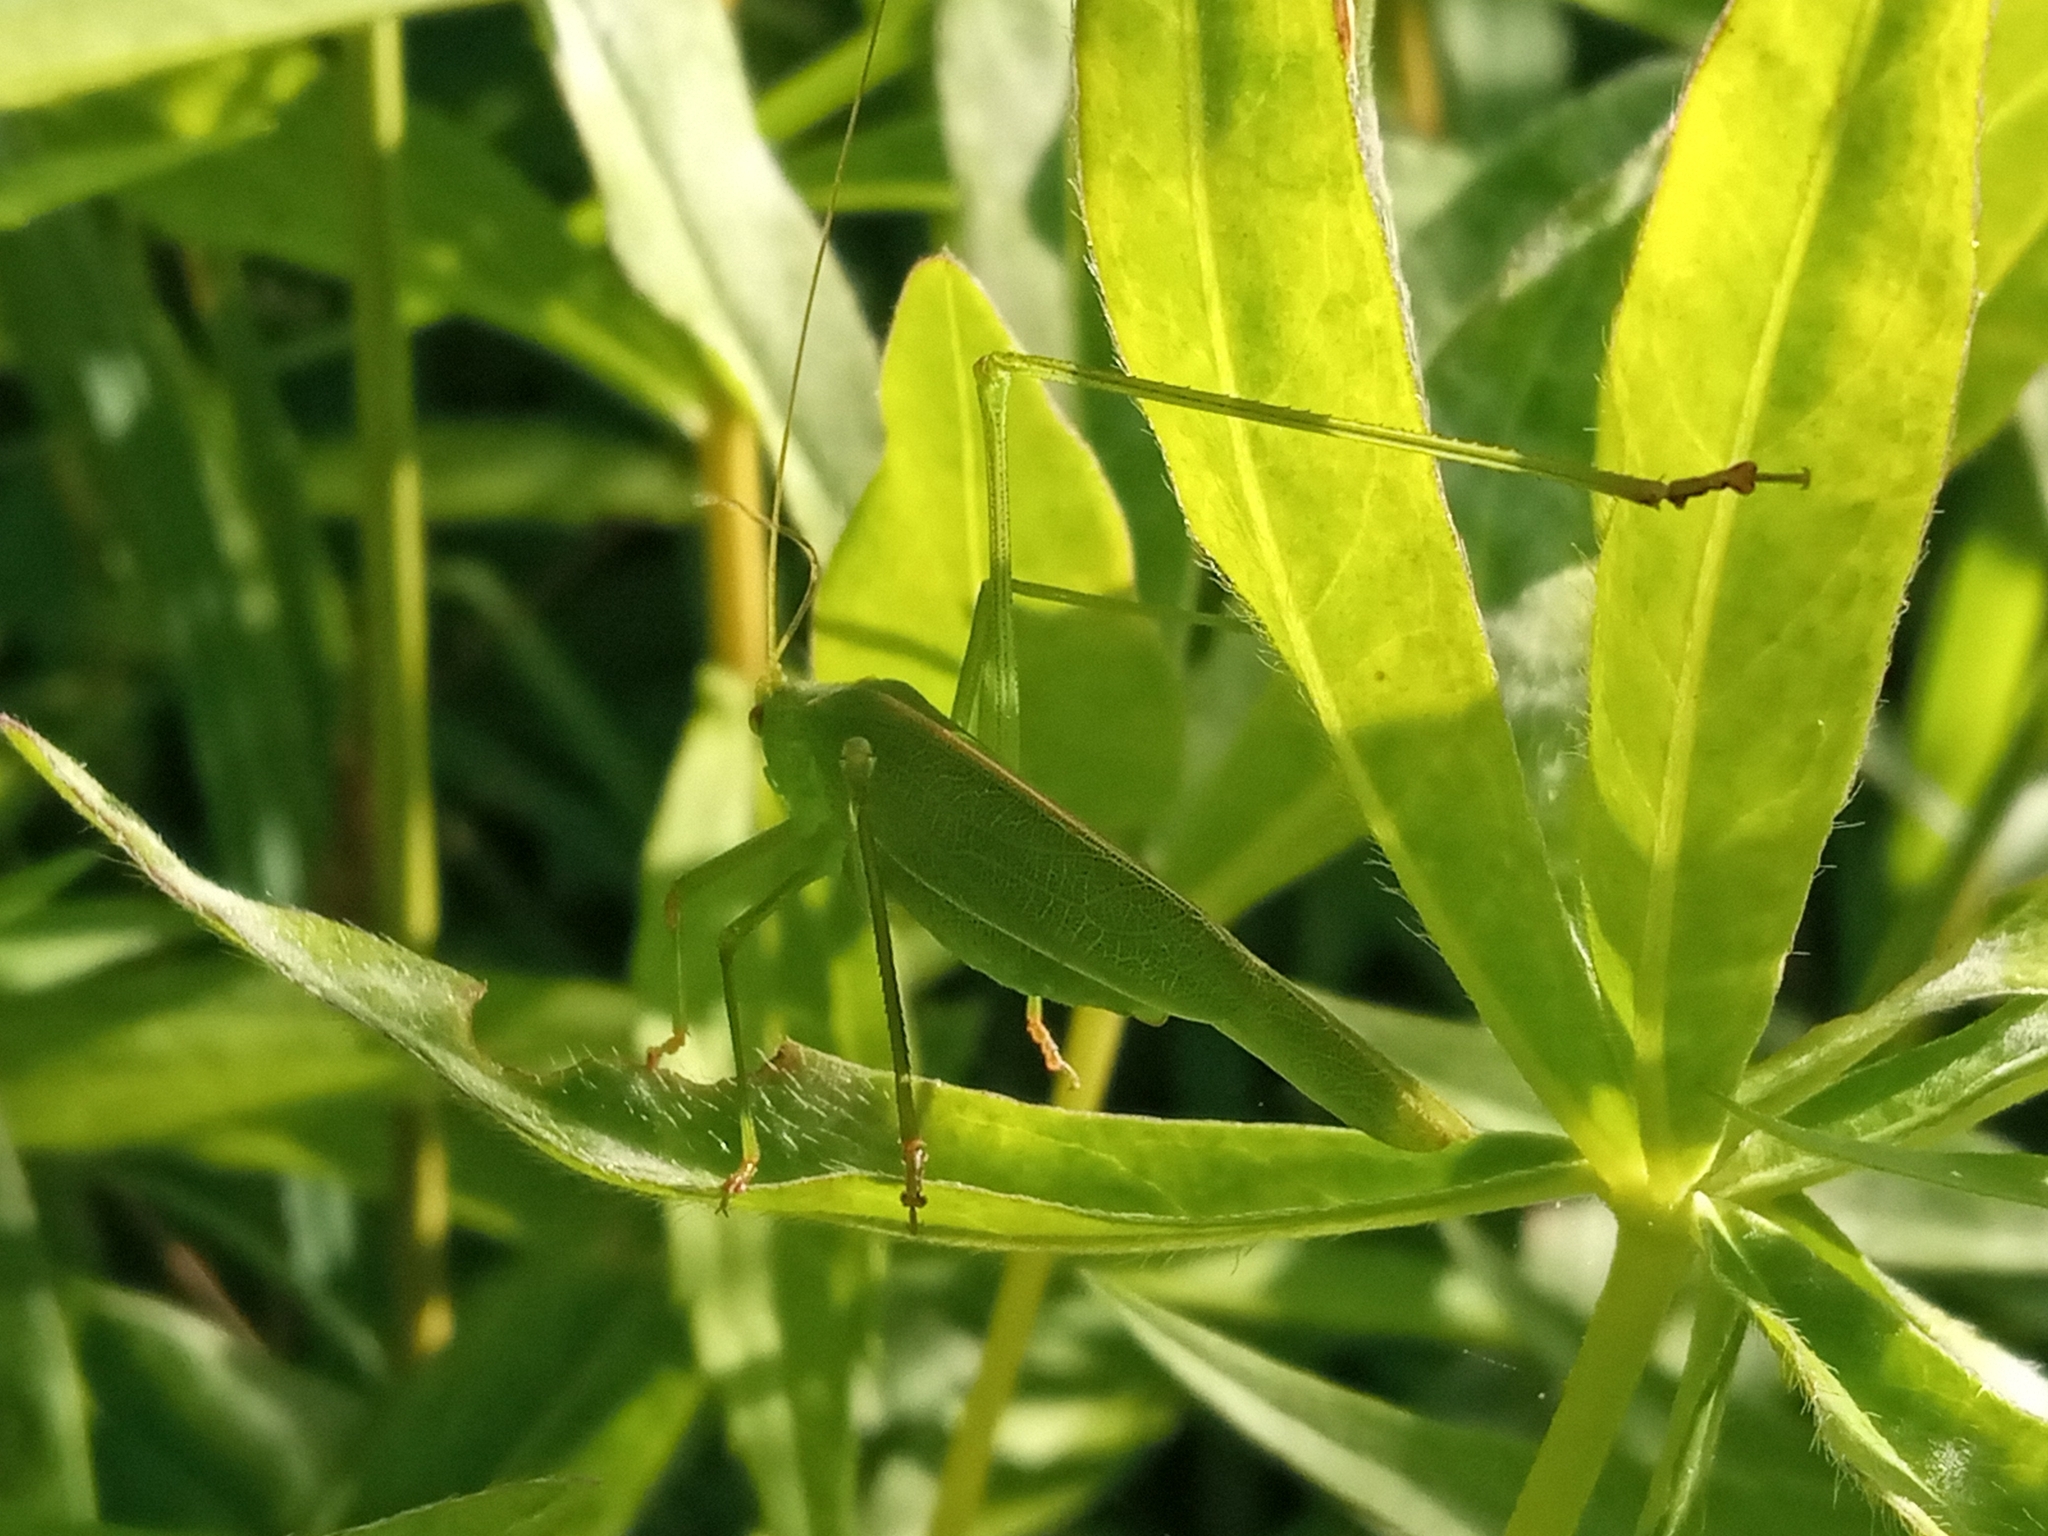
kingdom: Animalia
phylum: Arthropoda
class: Insecta
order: Orthoptera
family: Tettigoniidae
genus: Phaneroptera
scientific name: Phaneroptera falcata
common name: Sickle-bearing bush-cricket
